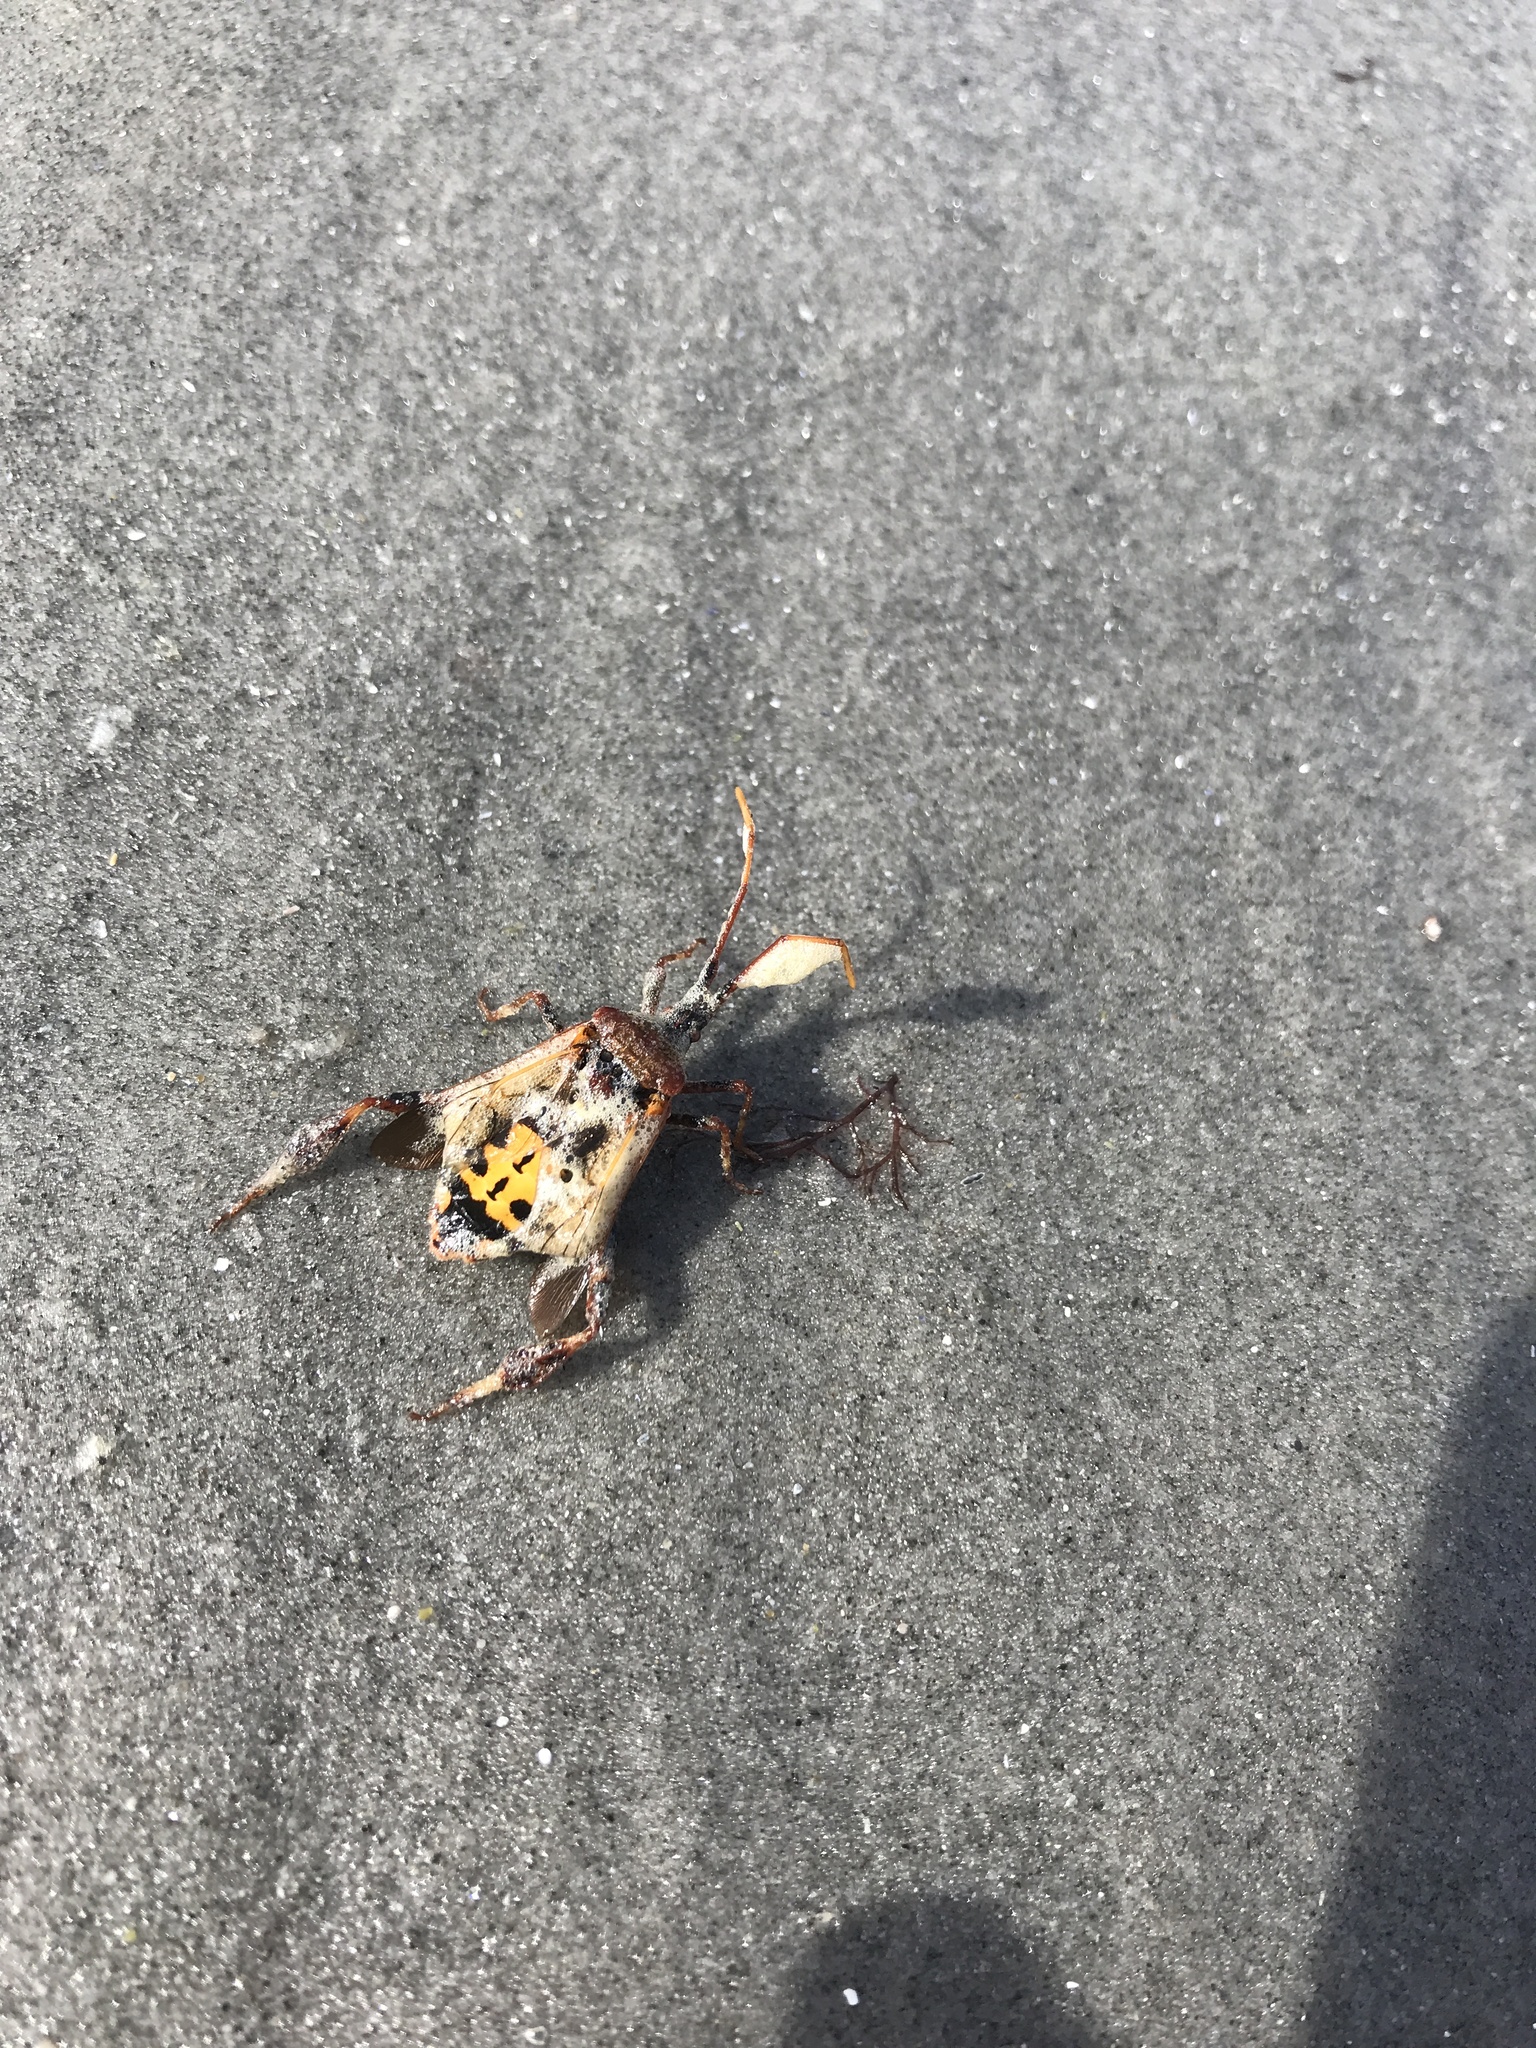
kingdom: Animalia
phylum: Arthropoda
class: Insecta
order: Hemiptera
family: Coreidae
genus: Leptoglossus
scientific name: Leptoglossus occidentalis
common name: Western conifer-seed bug
